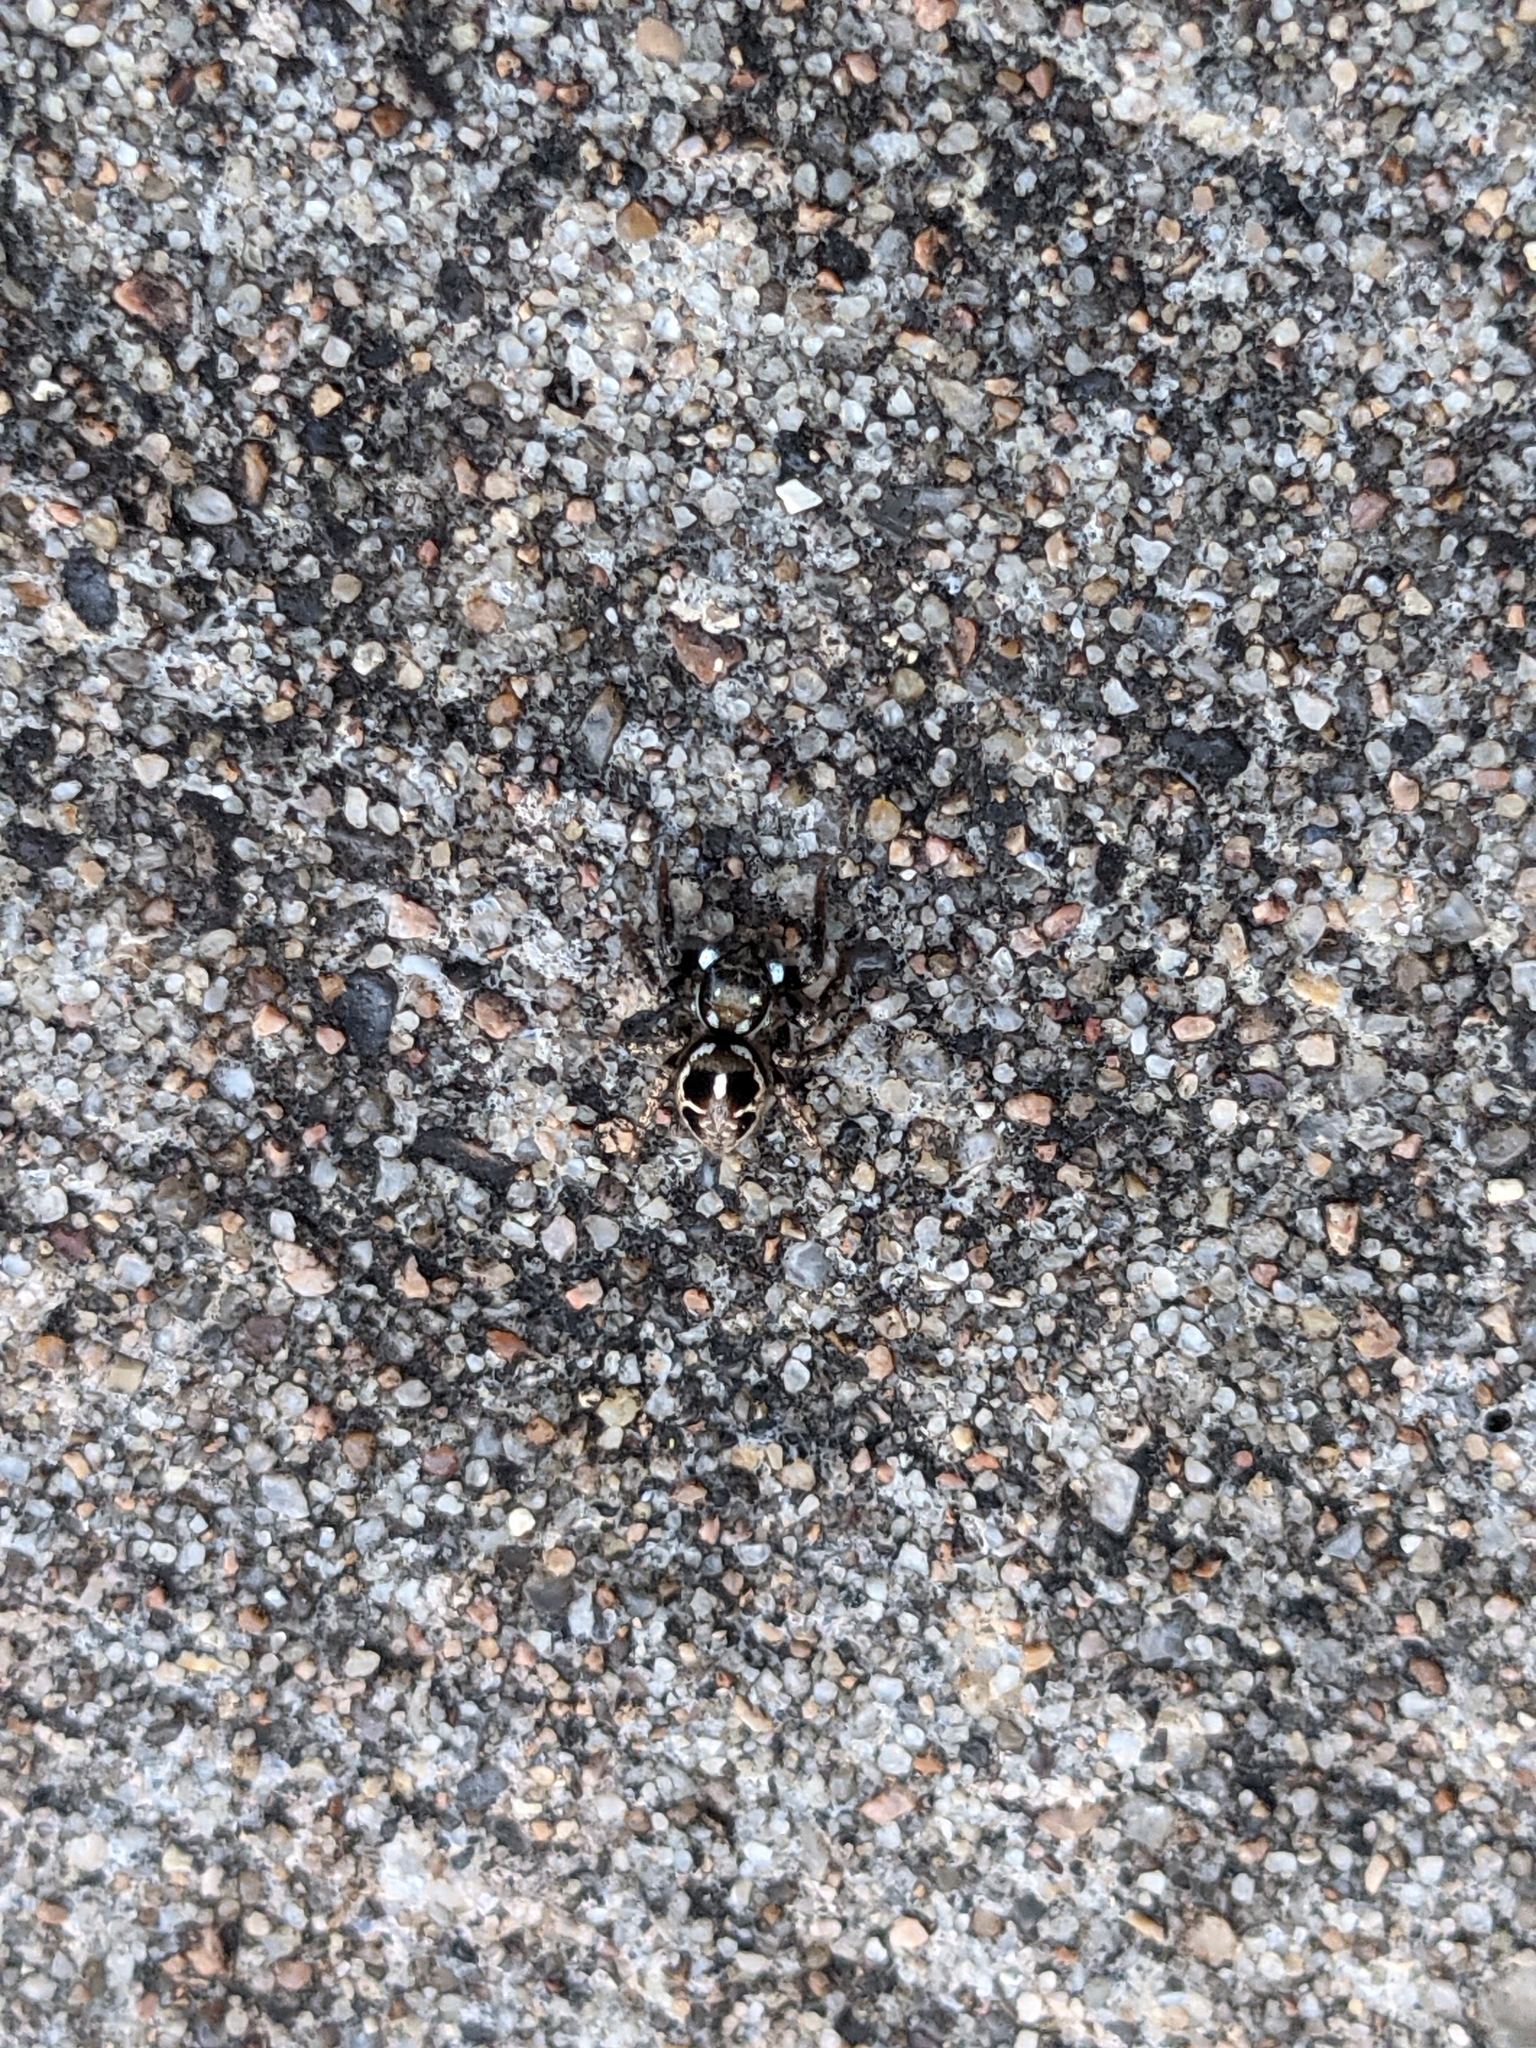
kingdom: Animalia
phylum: Arthropoda
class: Arachnida
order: Araneae
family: Salticidae
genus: Anasaitis
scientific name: Anasaitis canosa
